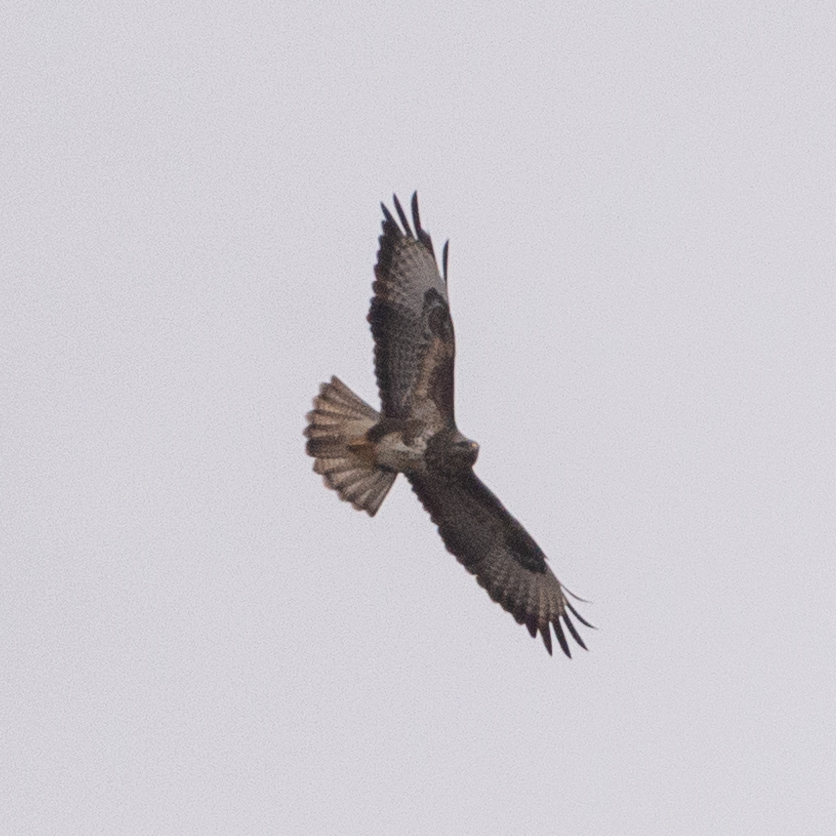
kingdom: Animalia
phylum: Chordata
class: Aves
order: Accipitriformes
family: Accipitridae
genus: Buteo
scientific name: Buteo buteo
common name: Common buzzard
